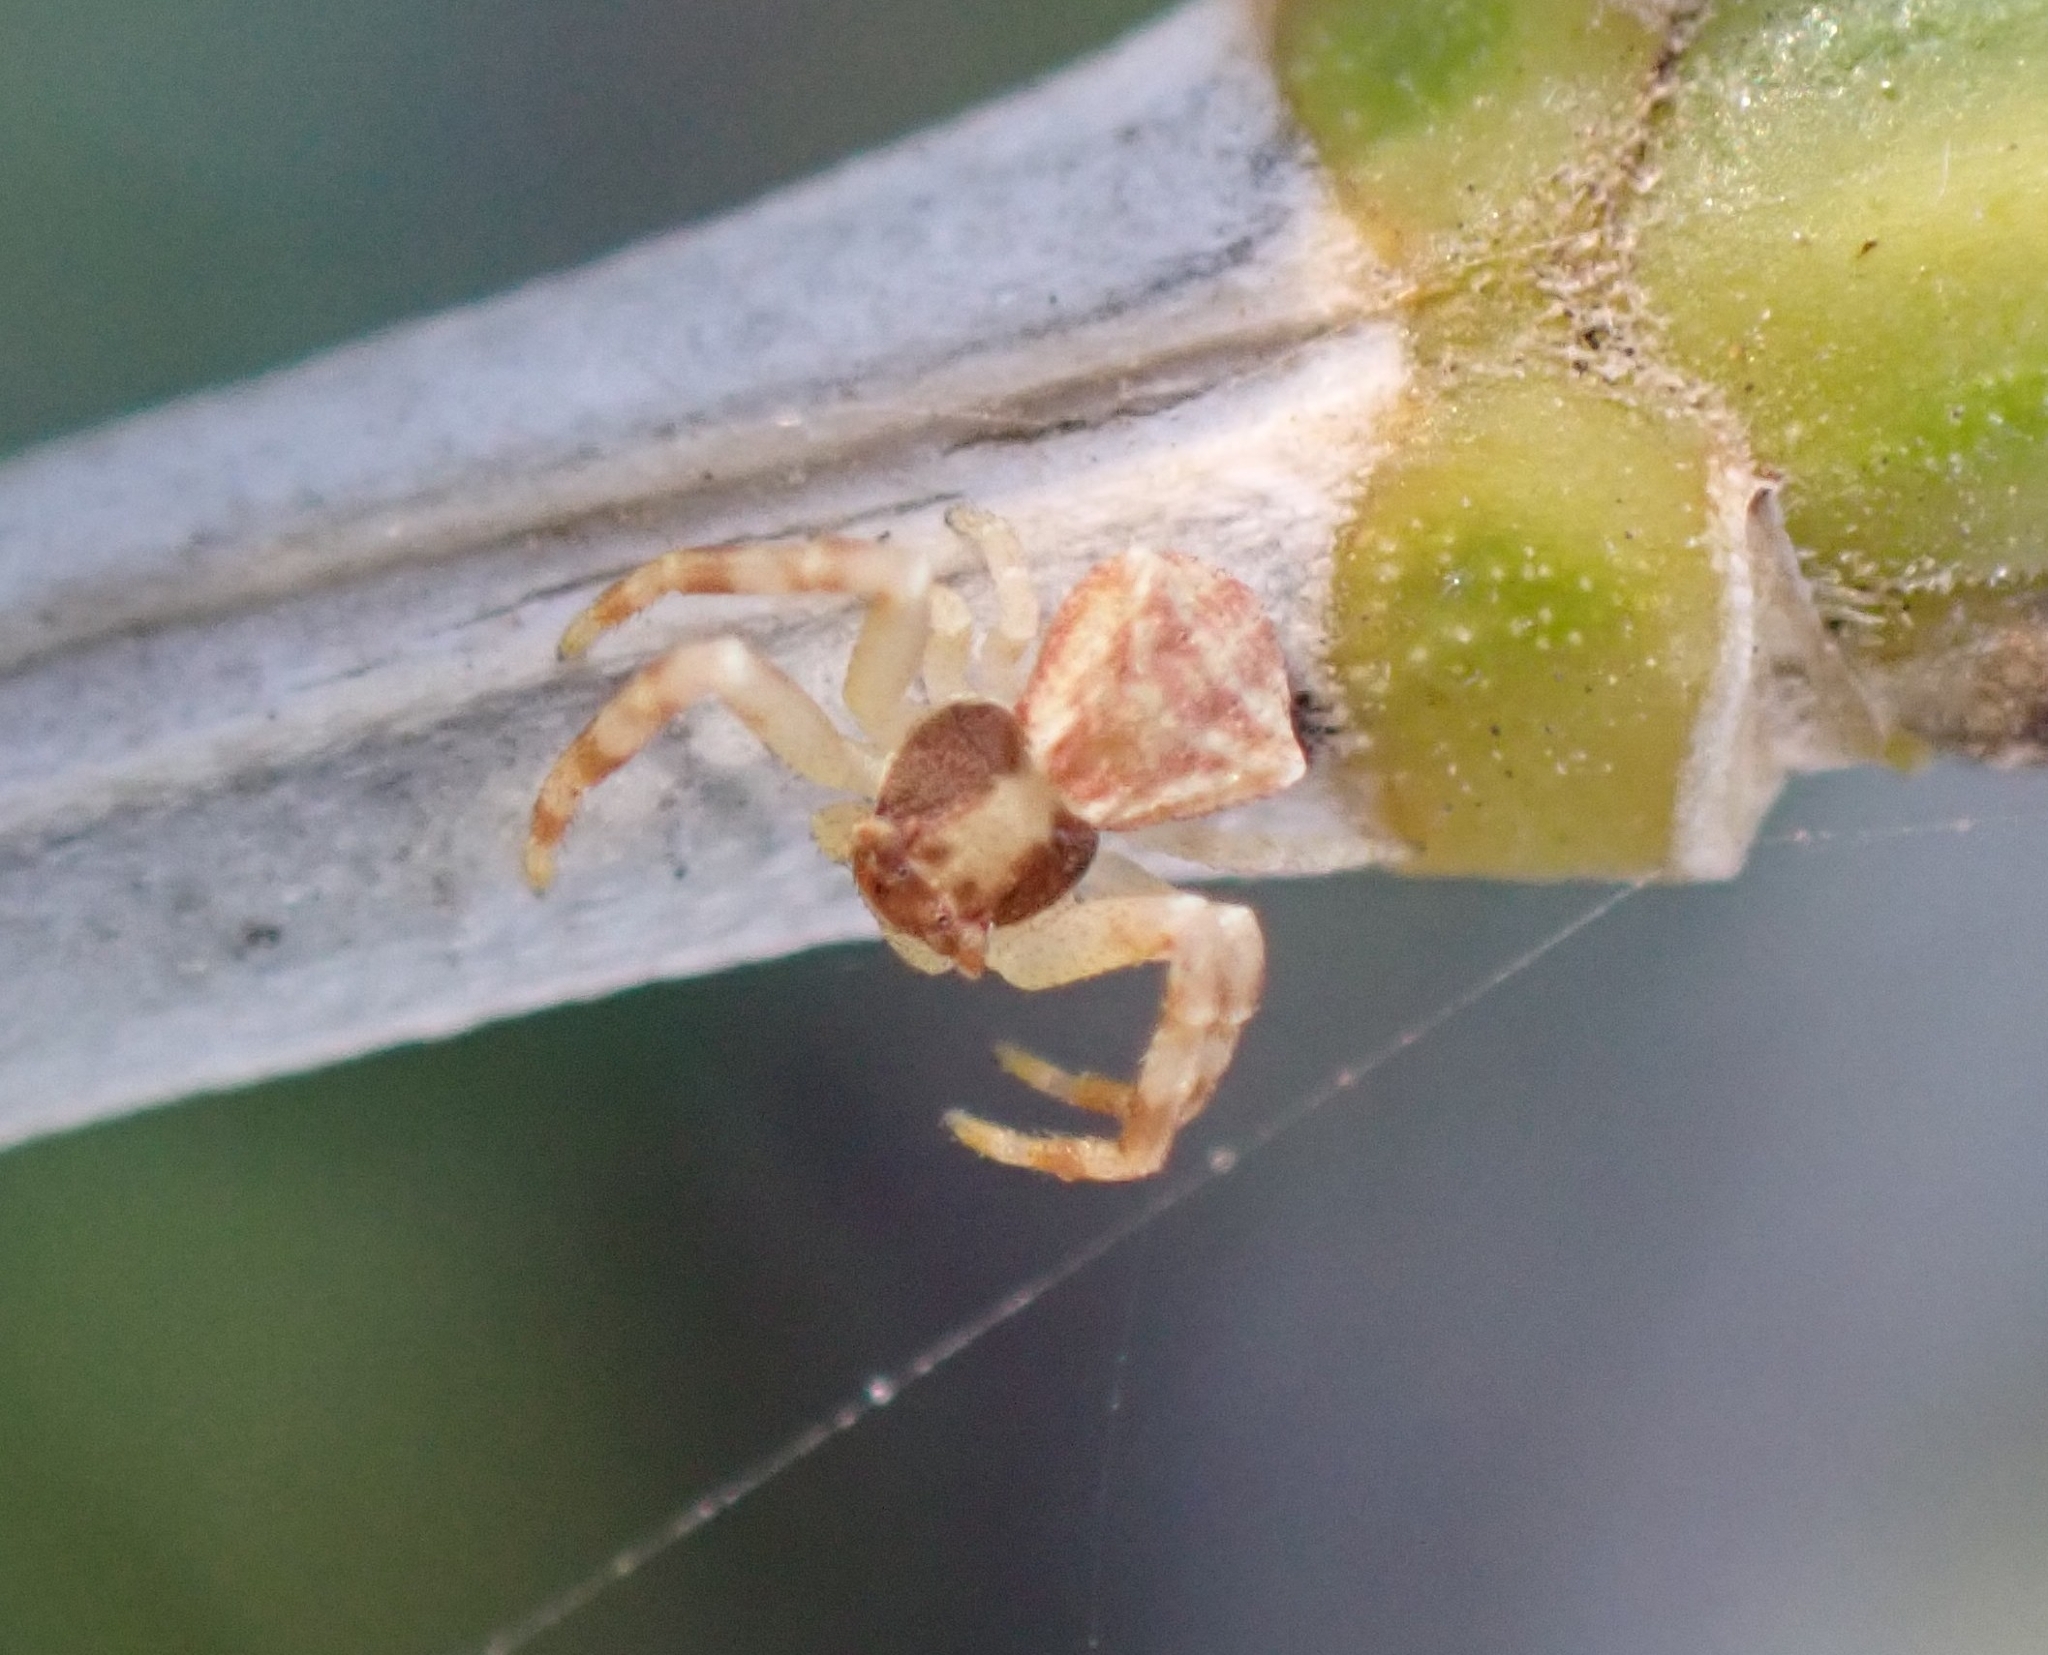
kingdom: Animalia
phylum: Arthropoda
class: Arachnida
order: Araneae
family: Thomisidae
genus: Thomisus
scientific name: Thomisus onustus
